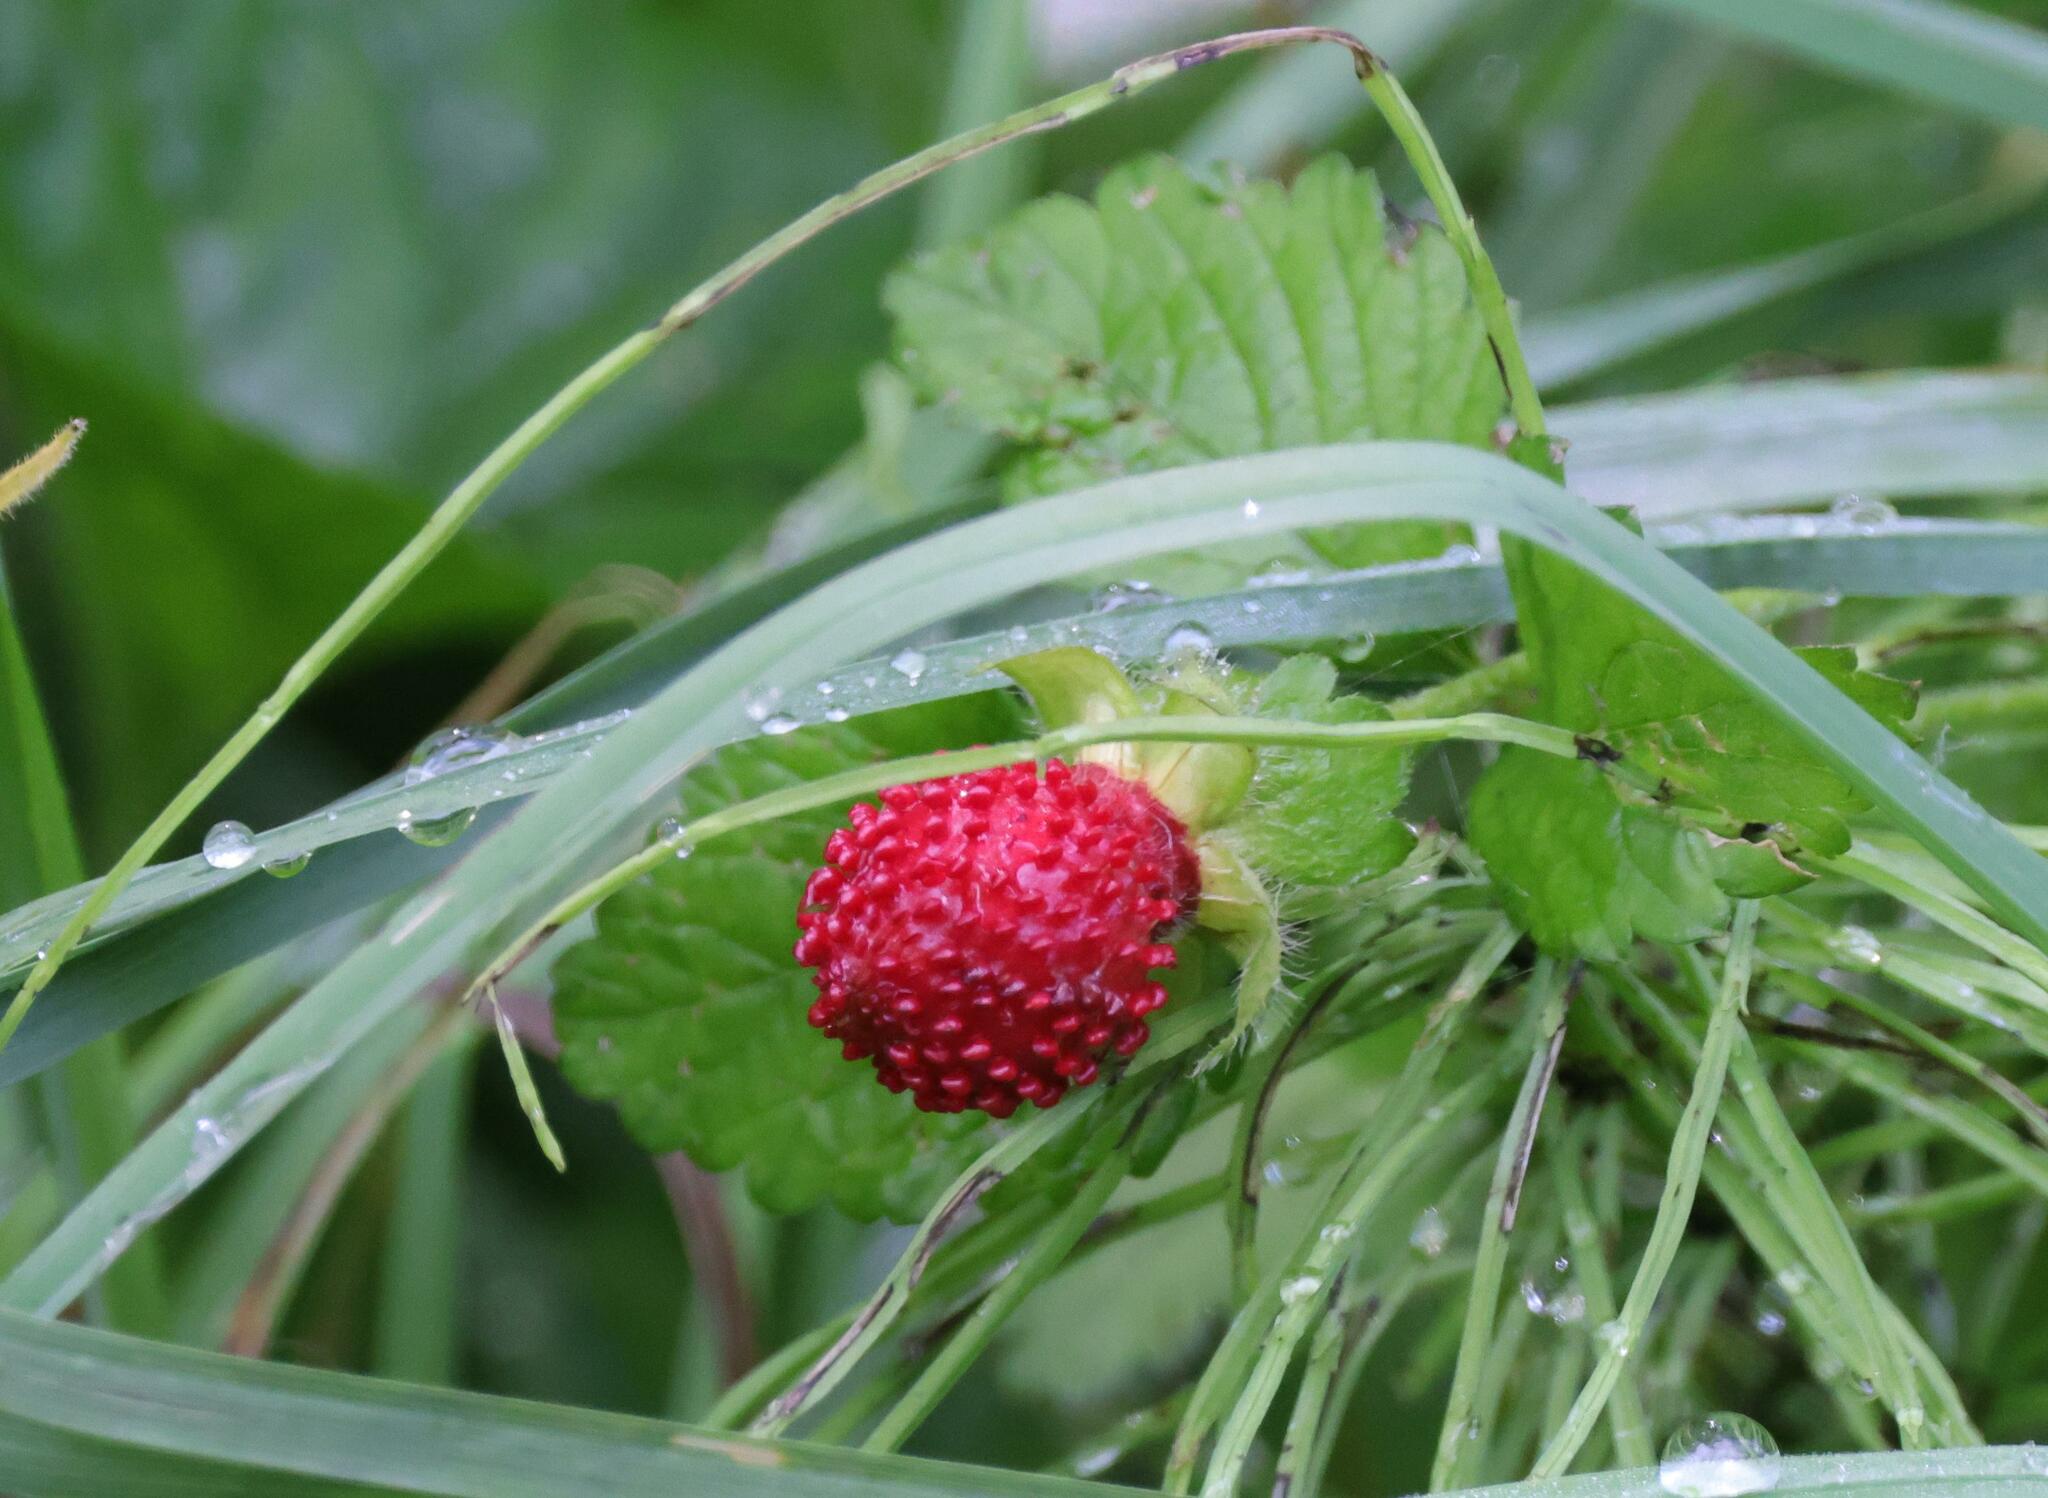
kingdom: Plantae
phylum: Tracheophyta
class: Magnoliopsida
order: Rosales
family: Rosaceae
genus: Potentilla
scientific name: Potentilla indica
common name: Yellow-flowered strawberry
